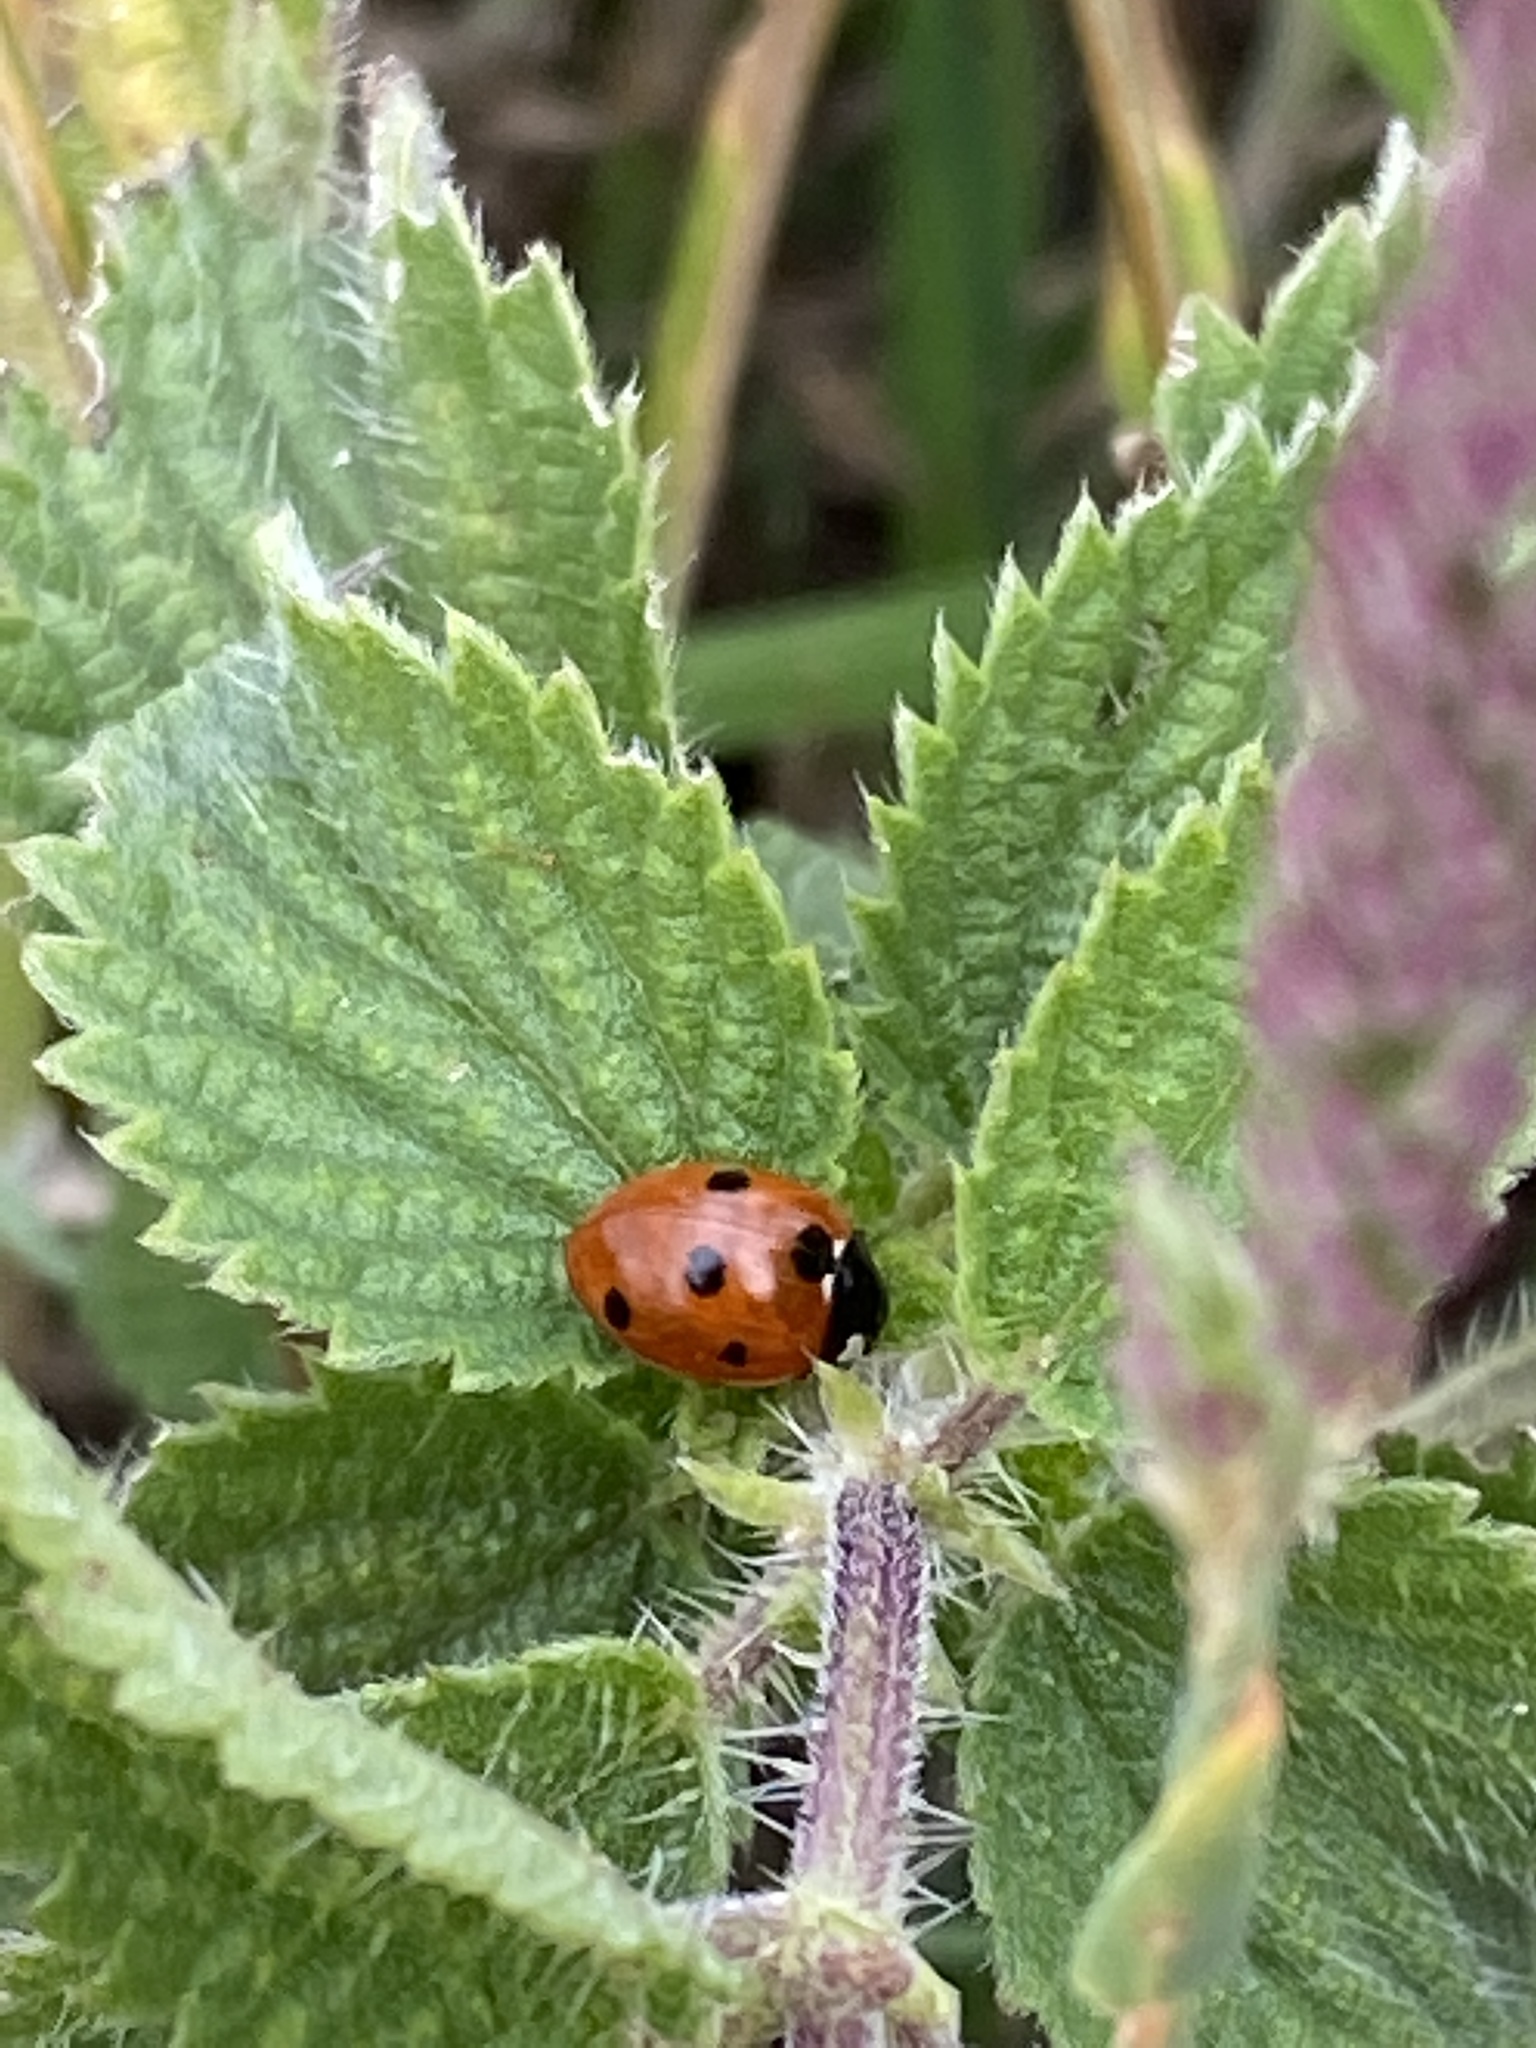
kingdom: Animalia
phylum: Arthropoda
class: Insecta
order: Coleoptera
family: Coccinellidae
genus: Coccinella
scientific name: Coccinella septempunctata
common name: Sevenspotted lady beetle
